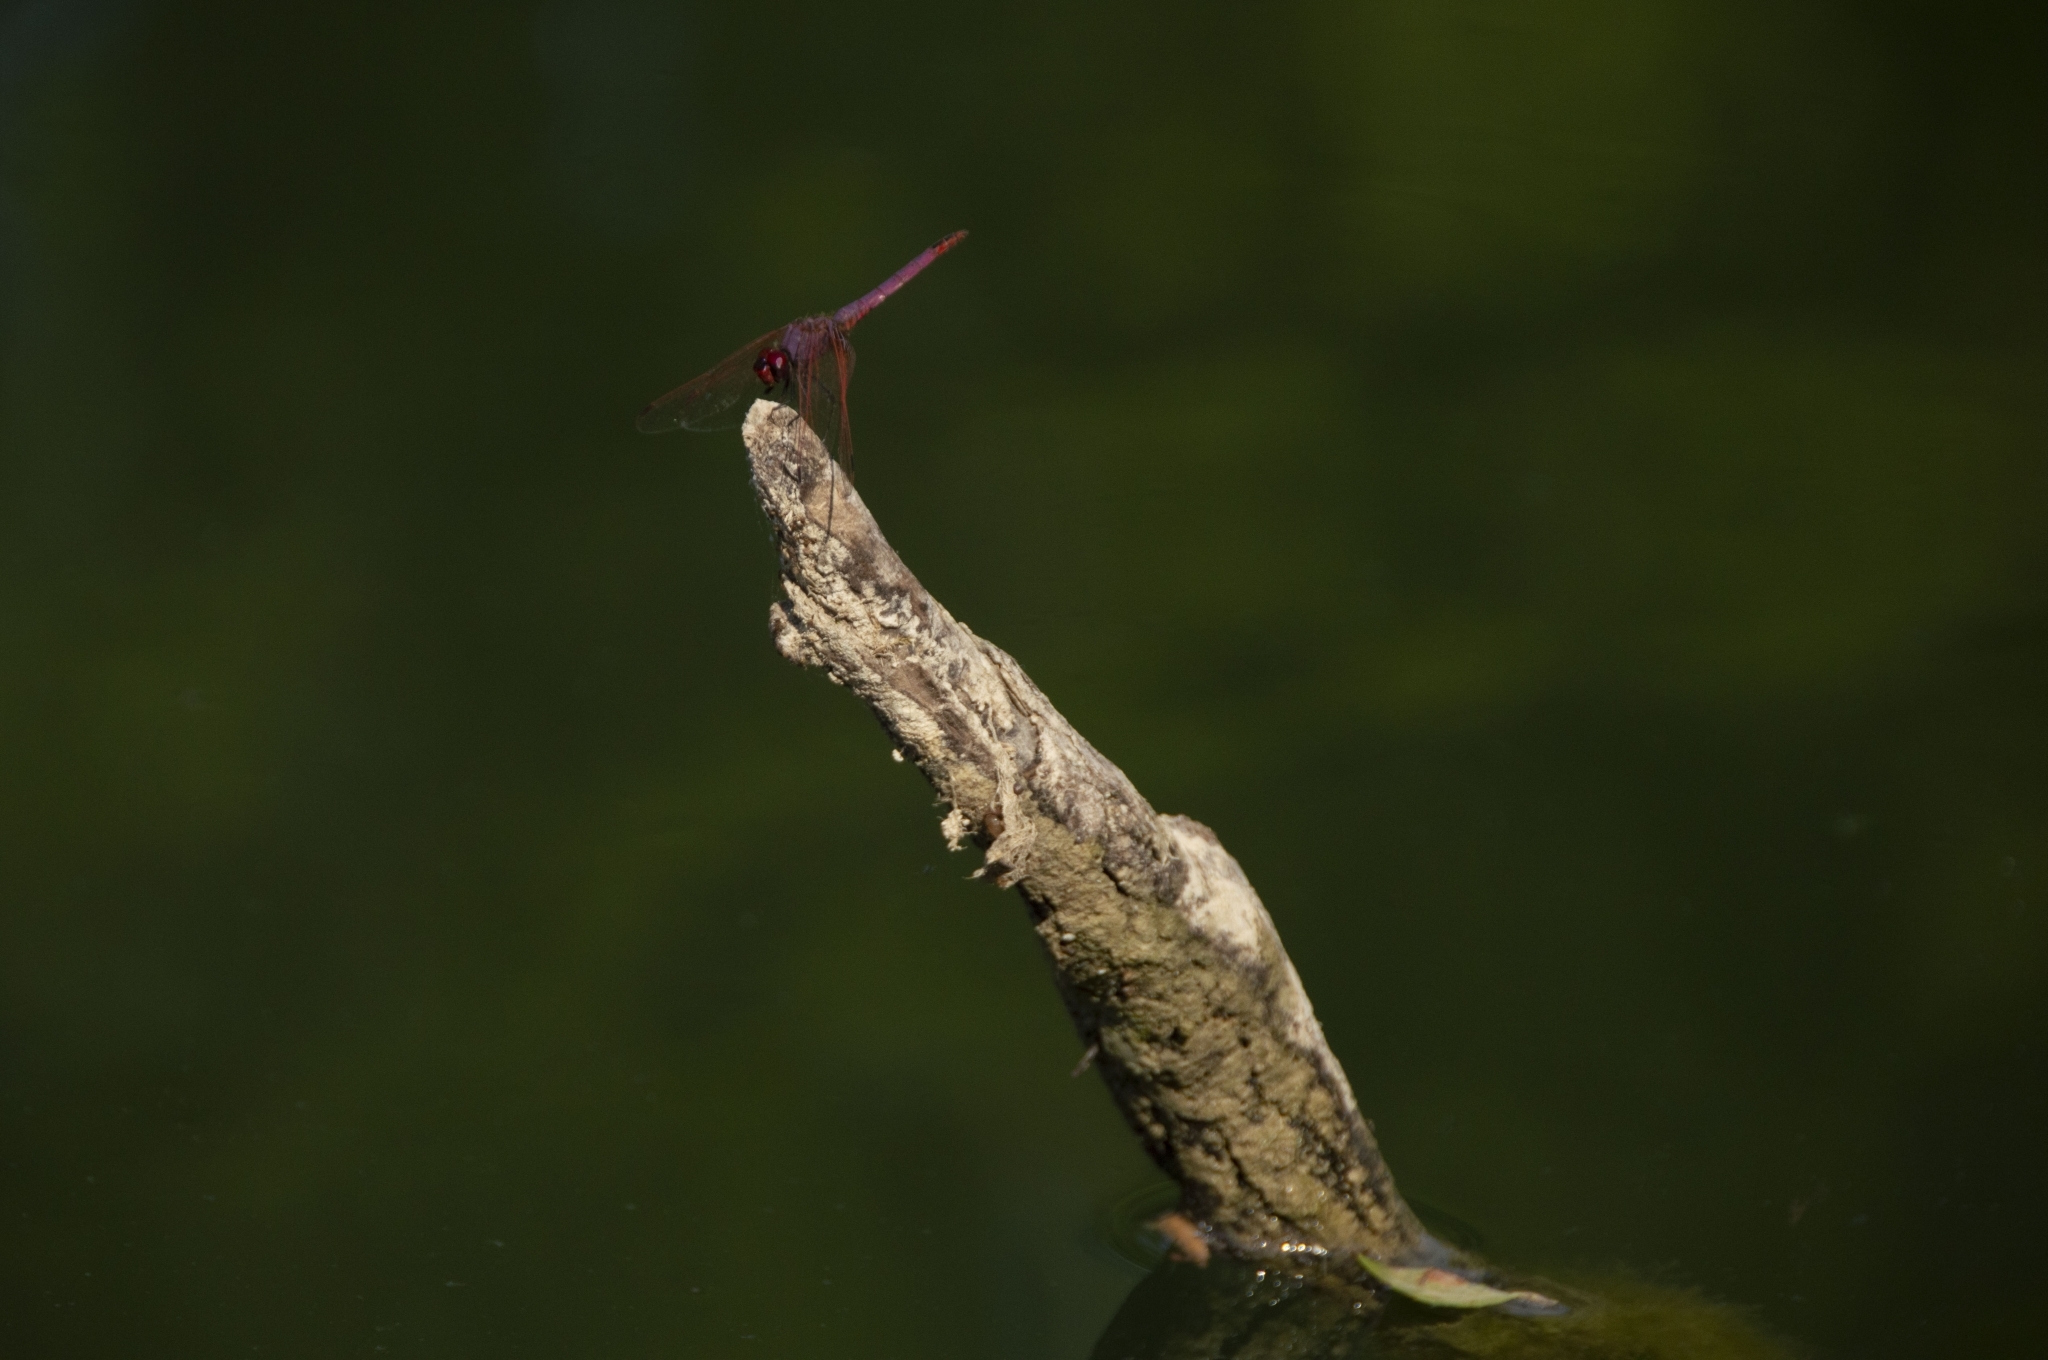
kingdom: Animalia
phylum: Arthropoda
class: Insecta
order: Odonata
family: Libellulidae
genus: Trithemis
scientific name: Trithemis annulata
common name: Violet dropwing
